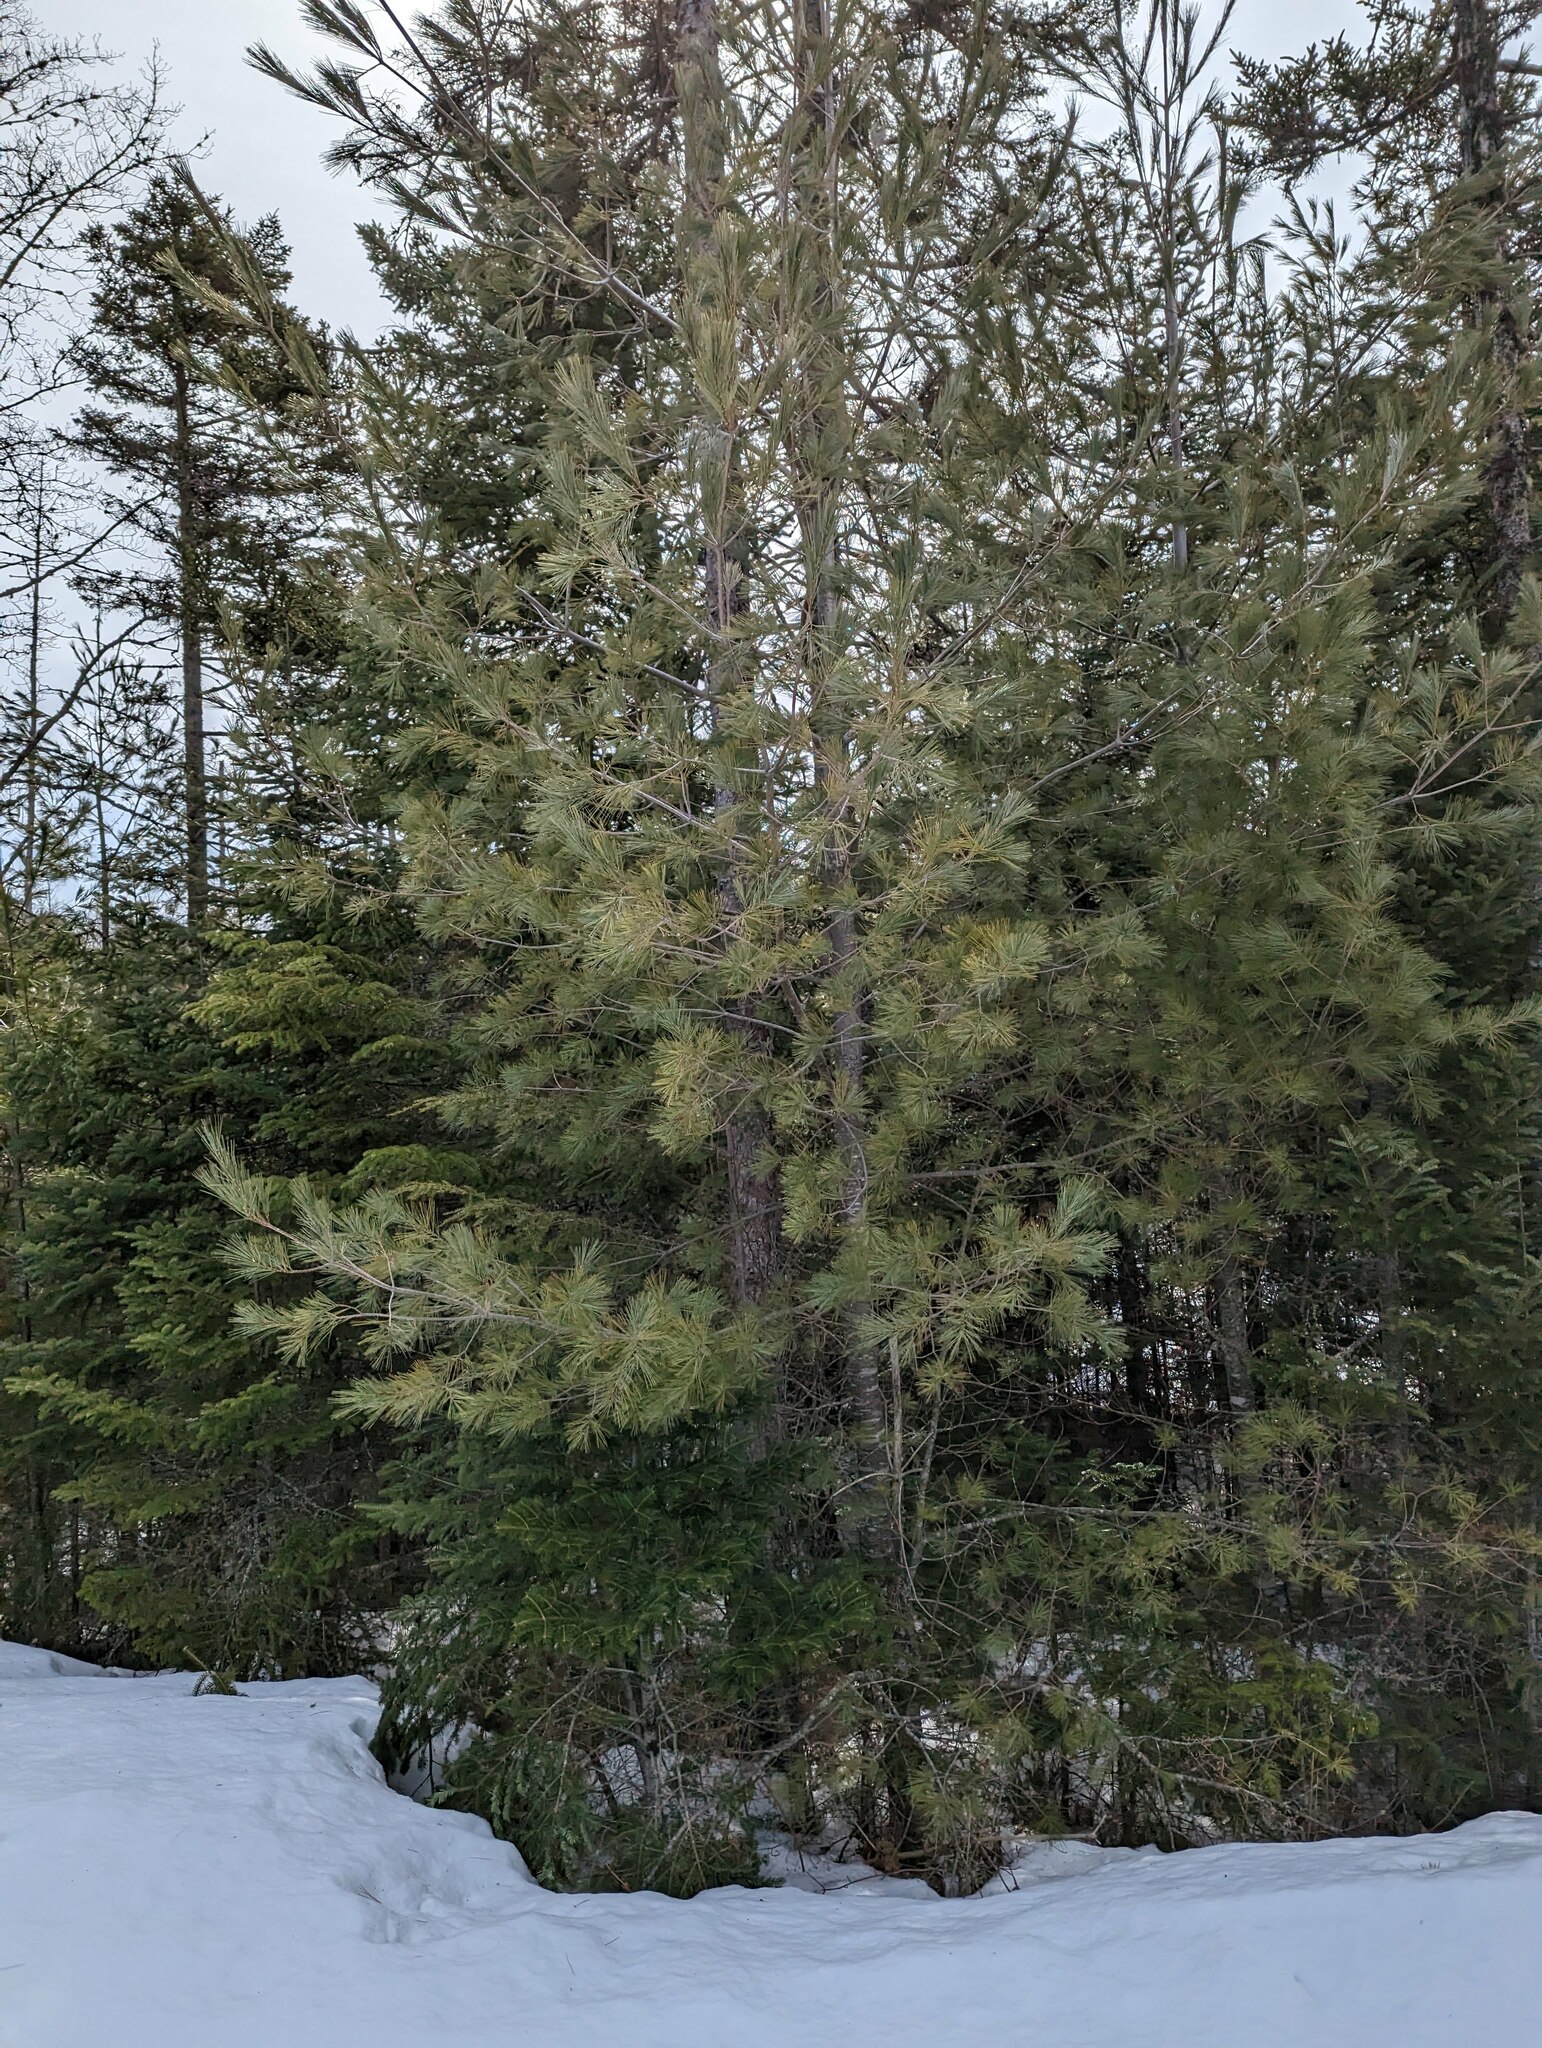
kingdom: Plantae
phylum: Tracheophyta
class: Pinopsida
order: Pinales
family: Pinaceae
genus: Pinus
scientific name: Pinus strobus
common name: Weymouth pine
